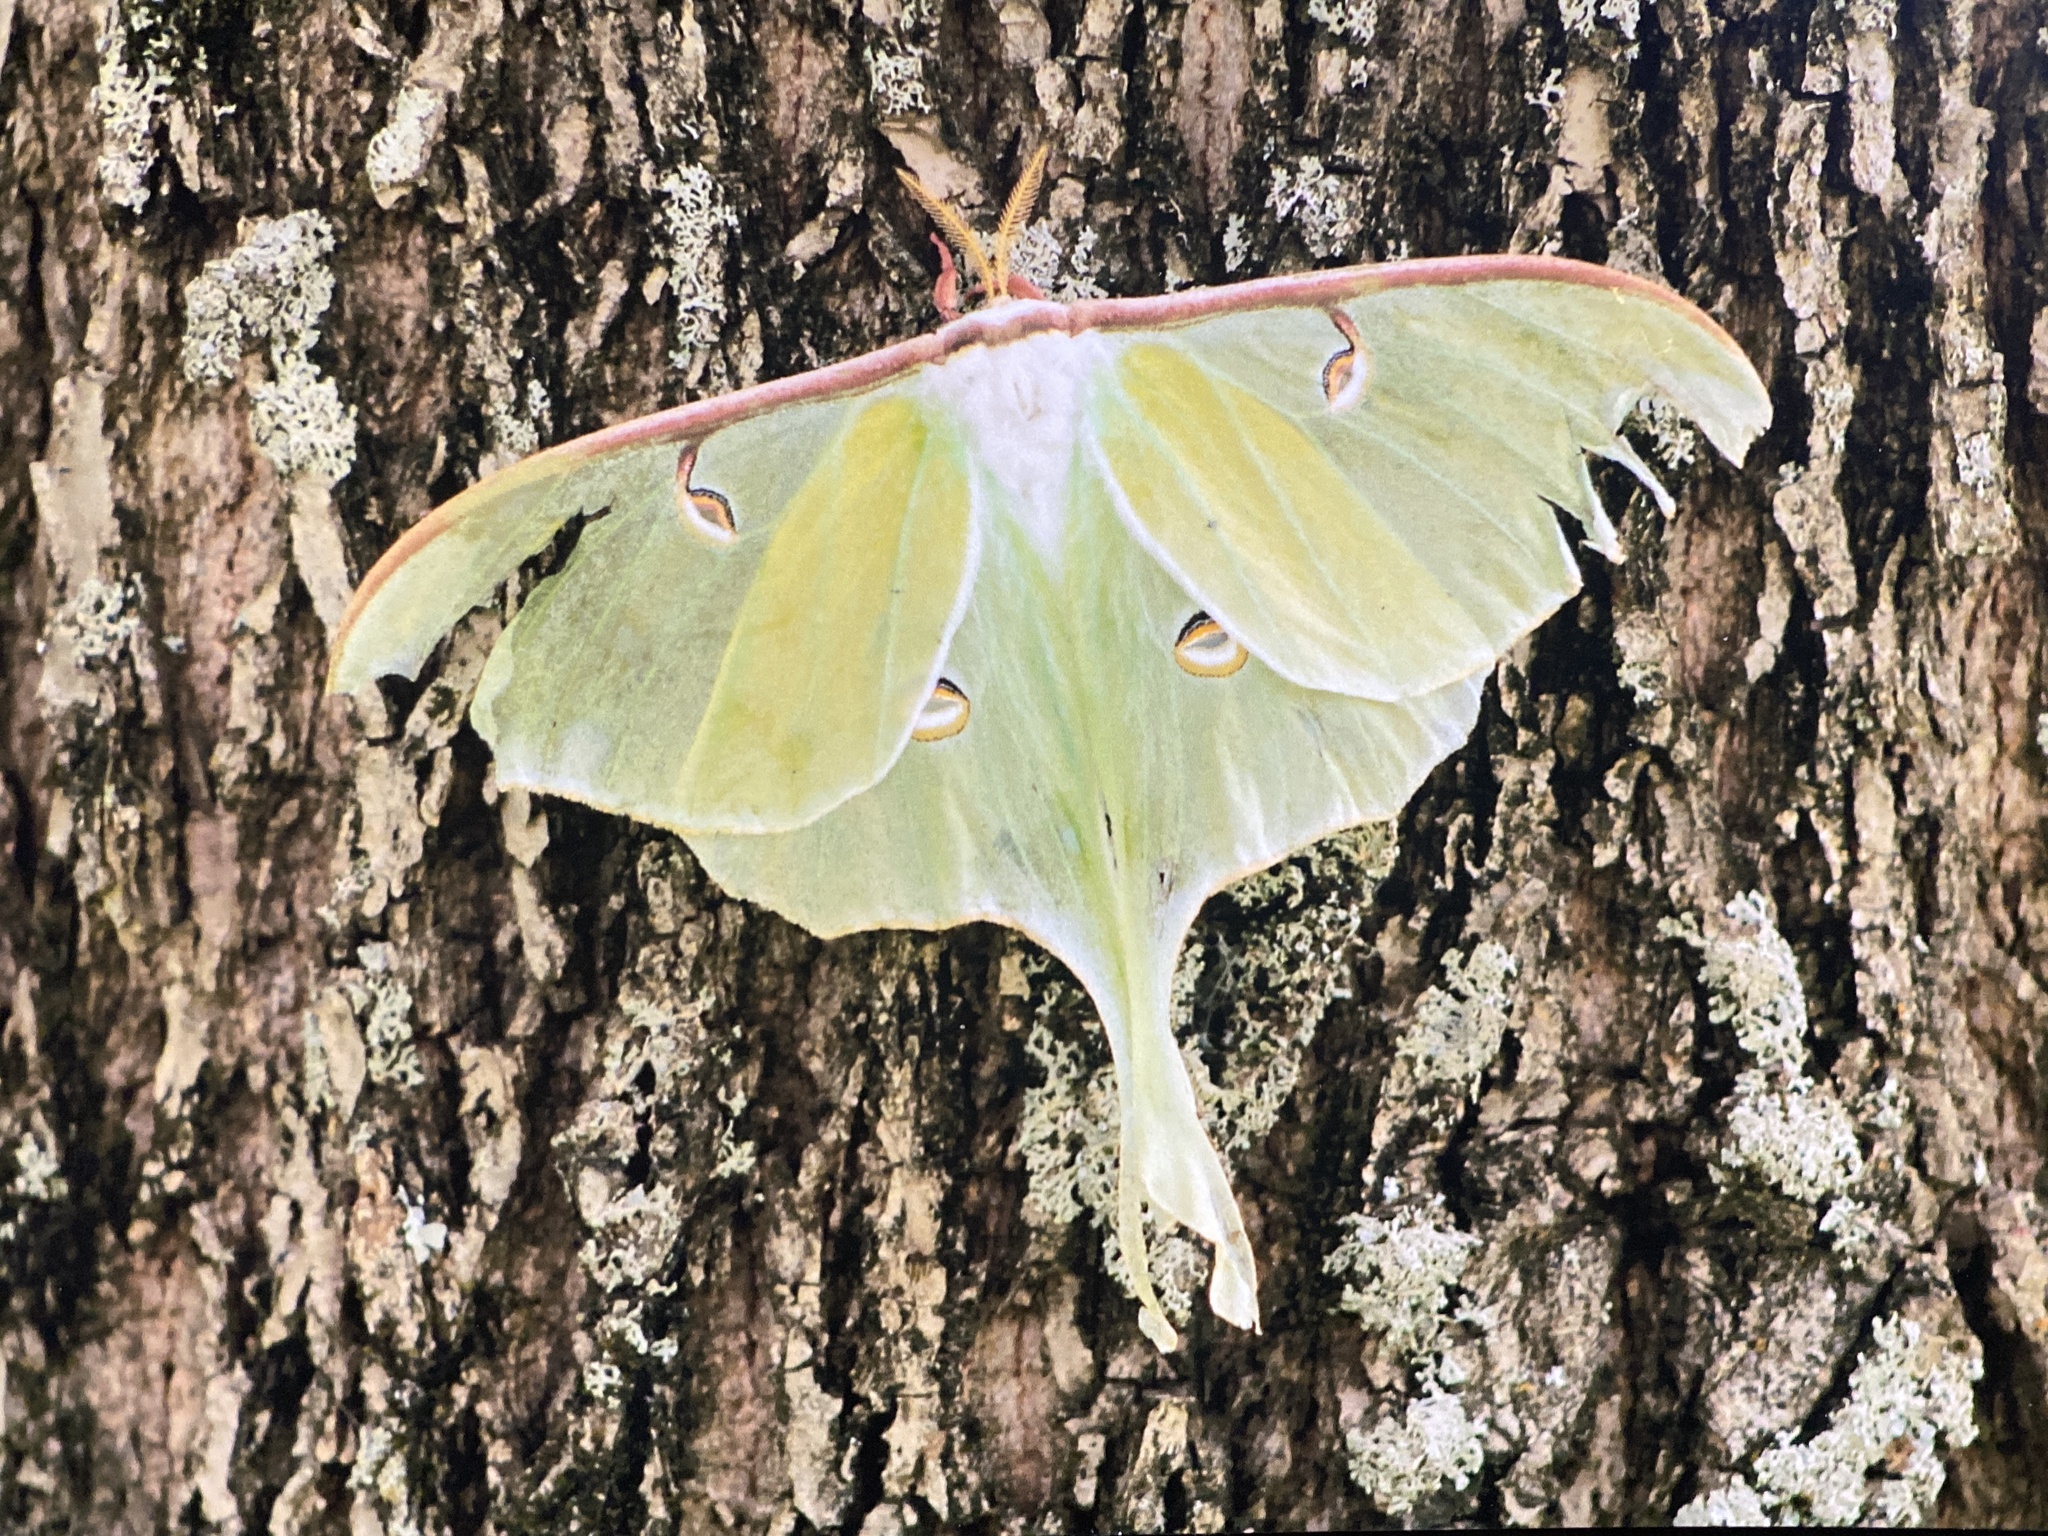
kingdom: Animalia
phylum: Arthropoda
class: Insecta
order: Lepidoptera
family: Saturniidae
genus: Actias
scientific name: Actias luna
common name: Luna moth
